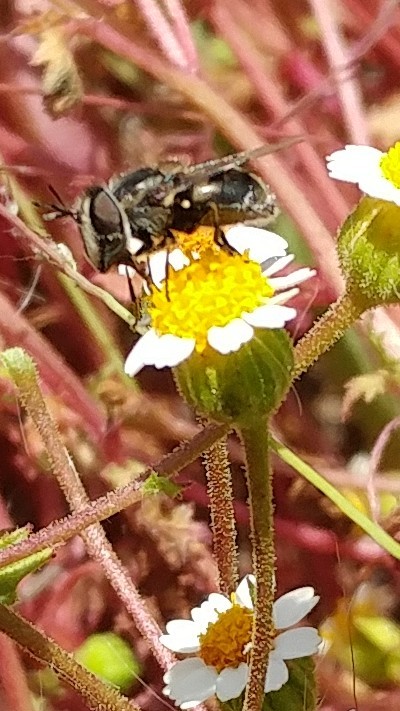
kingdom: Animalia
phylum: Arthropoda
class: Insecta
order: Diptera
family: Syrphidae
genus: Copestylum
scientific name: Copestylum lentum
